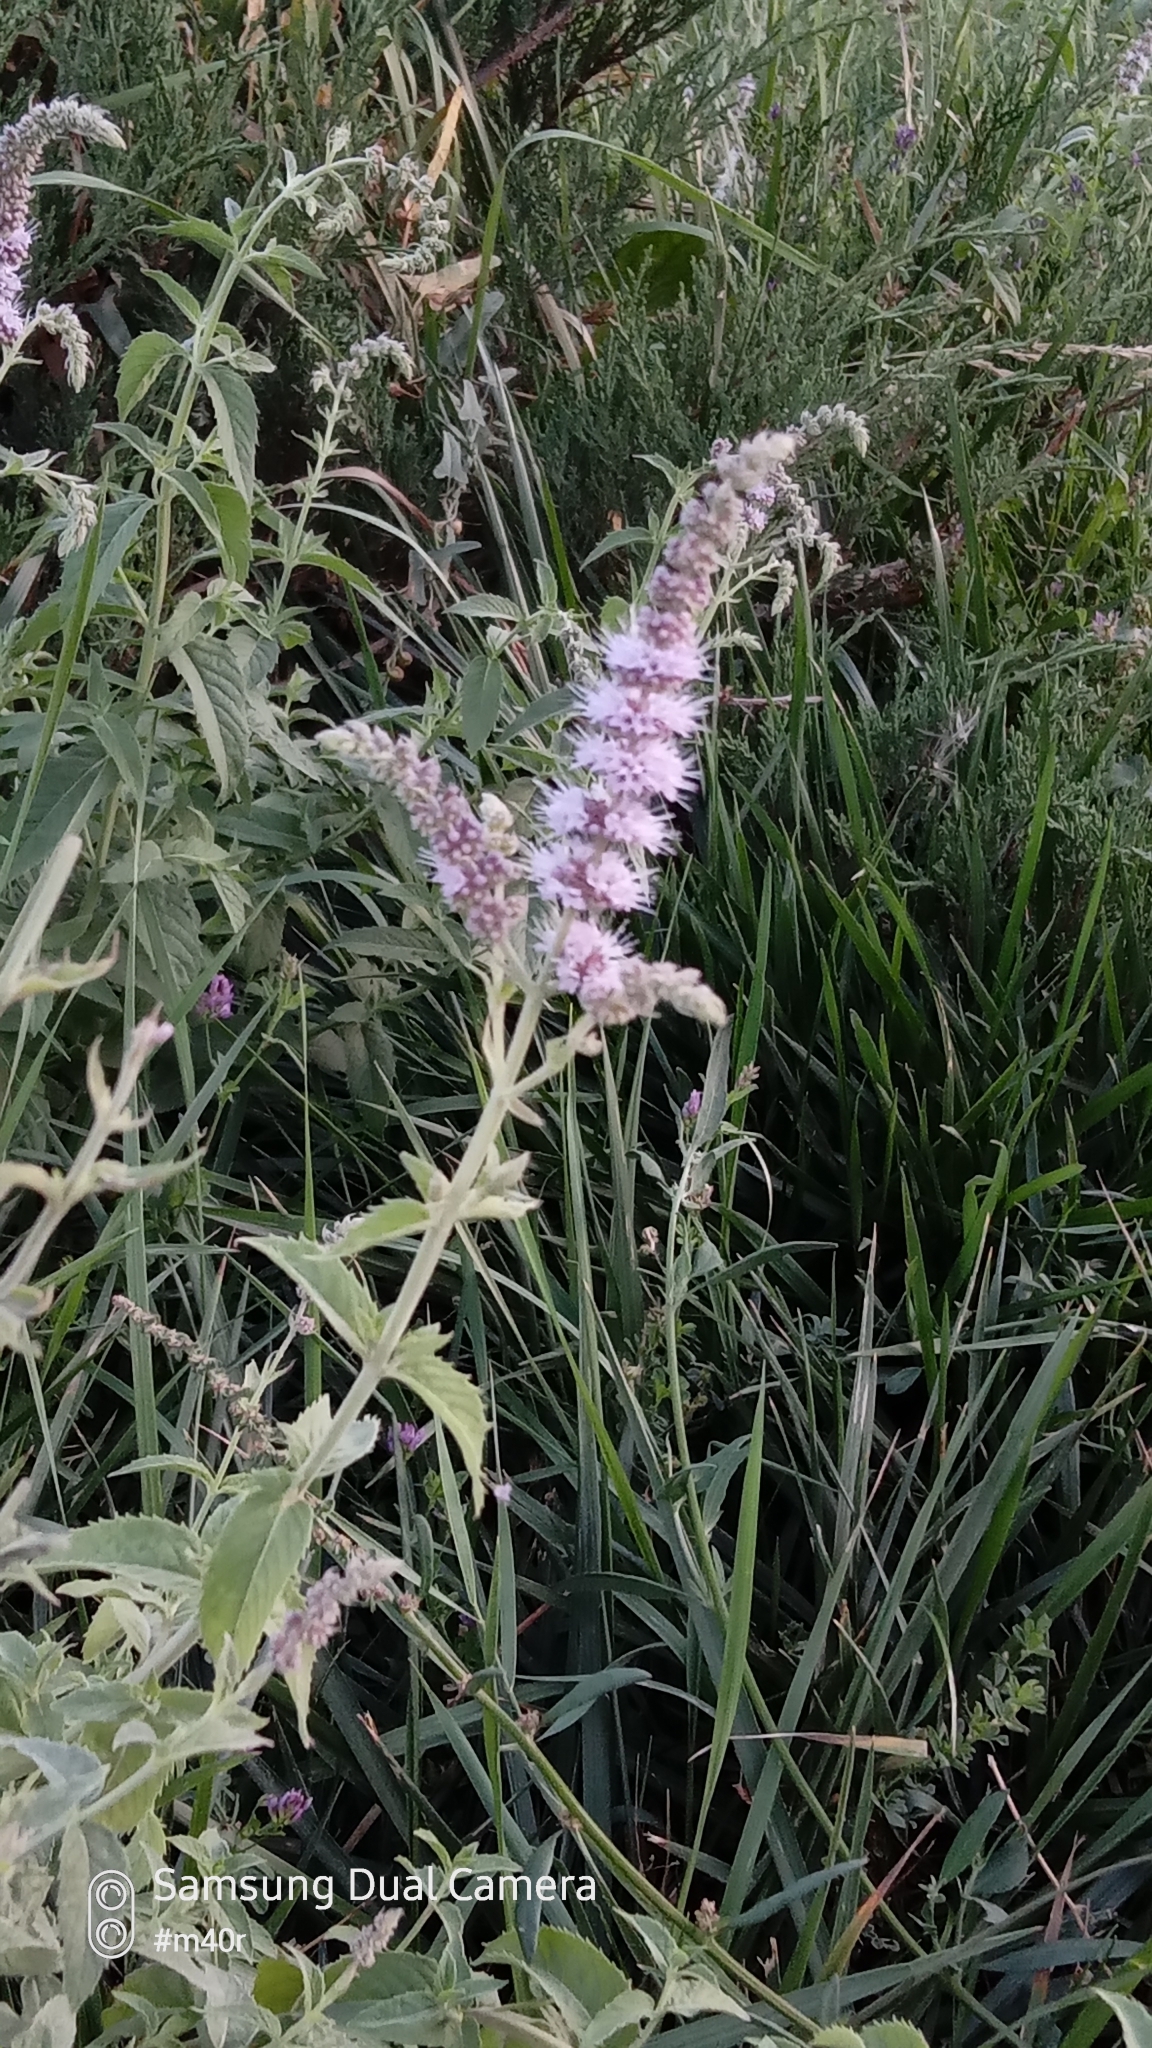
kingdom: Plantae
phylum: Tracheophyta
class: Magnoliopsida
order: Lamiales
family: Lamiaceae
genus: Mentha
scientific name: Mentha longifolia
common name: Horse mint
